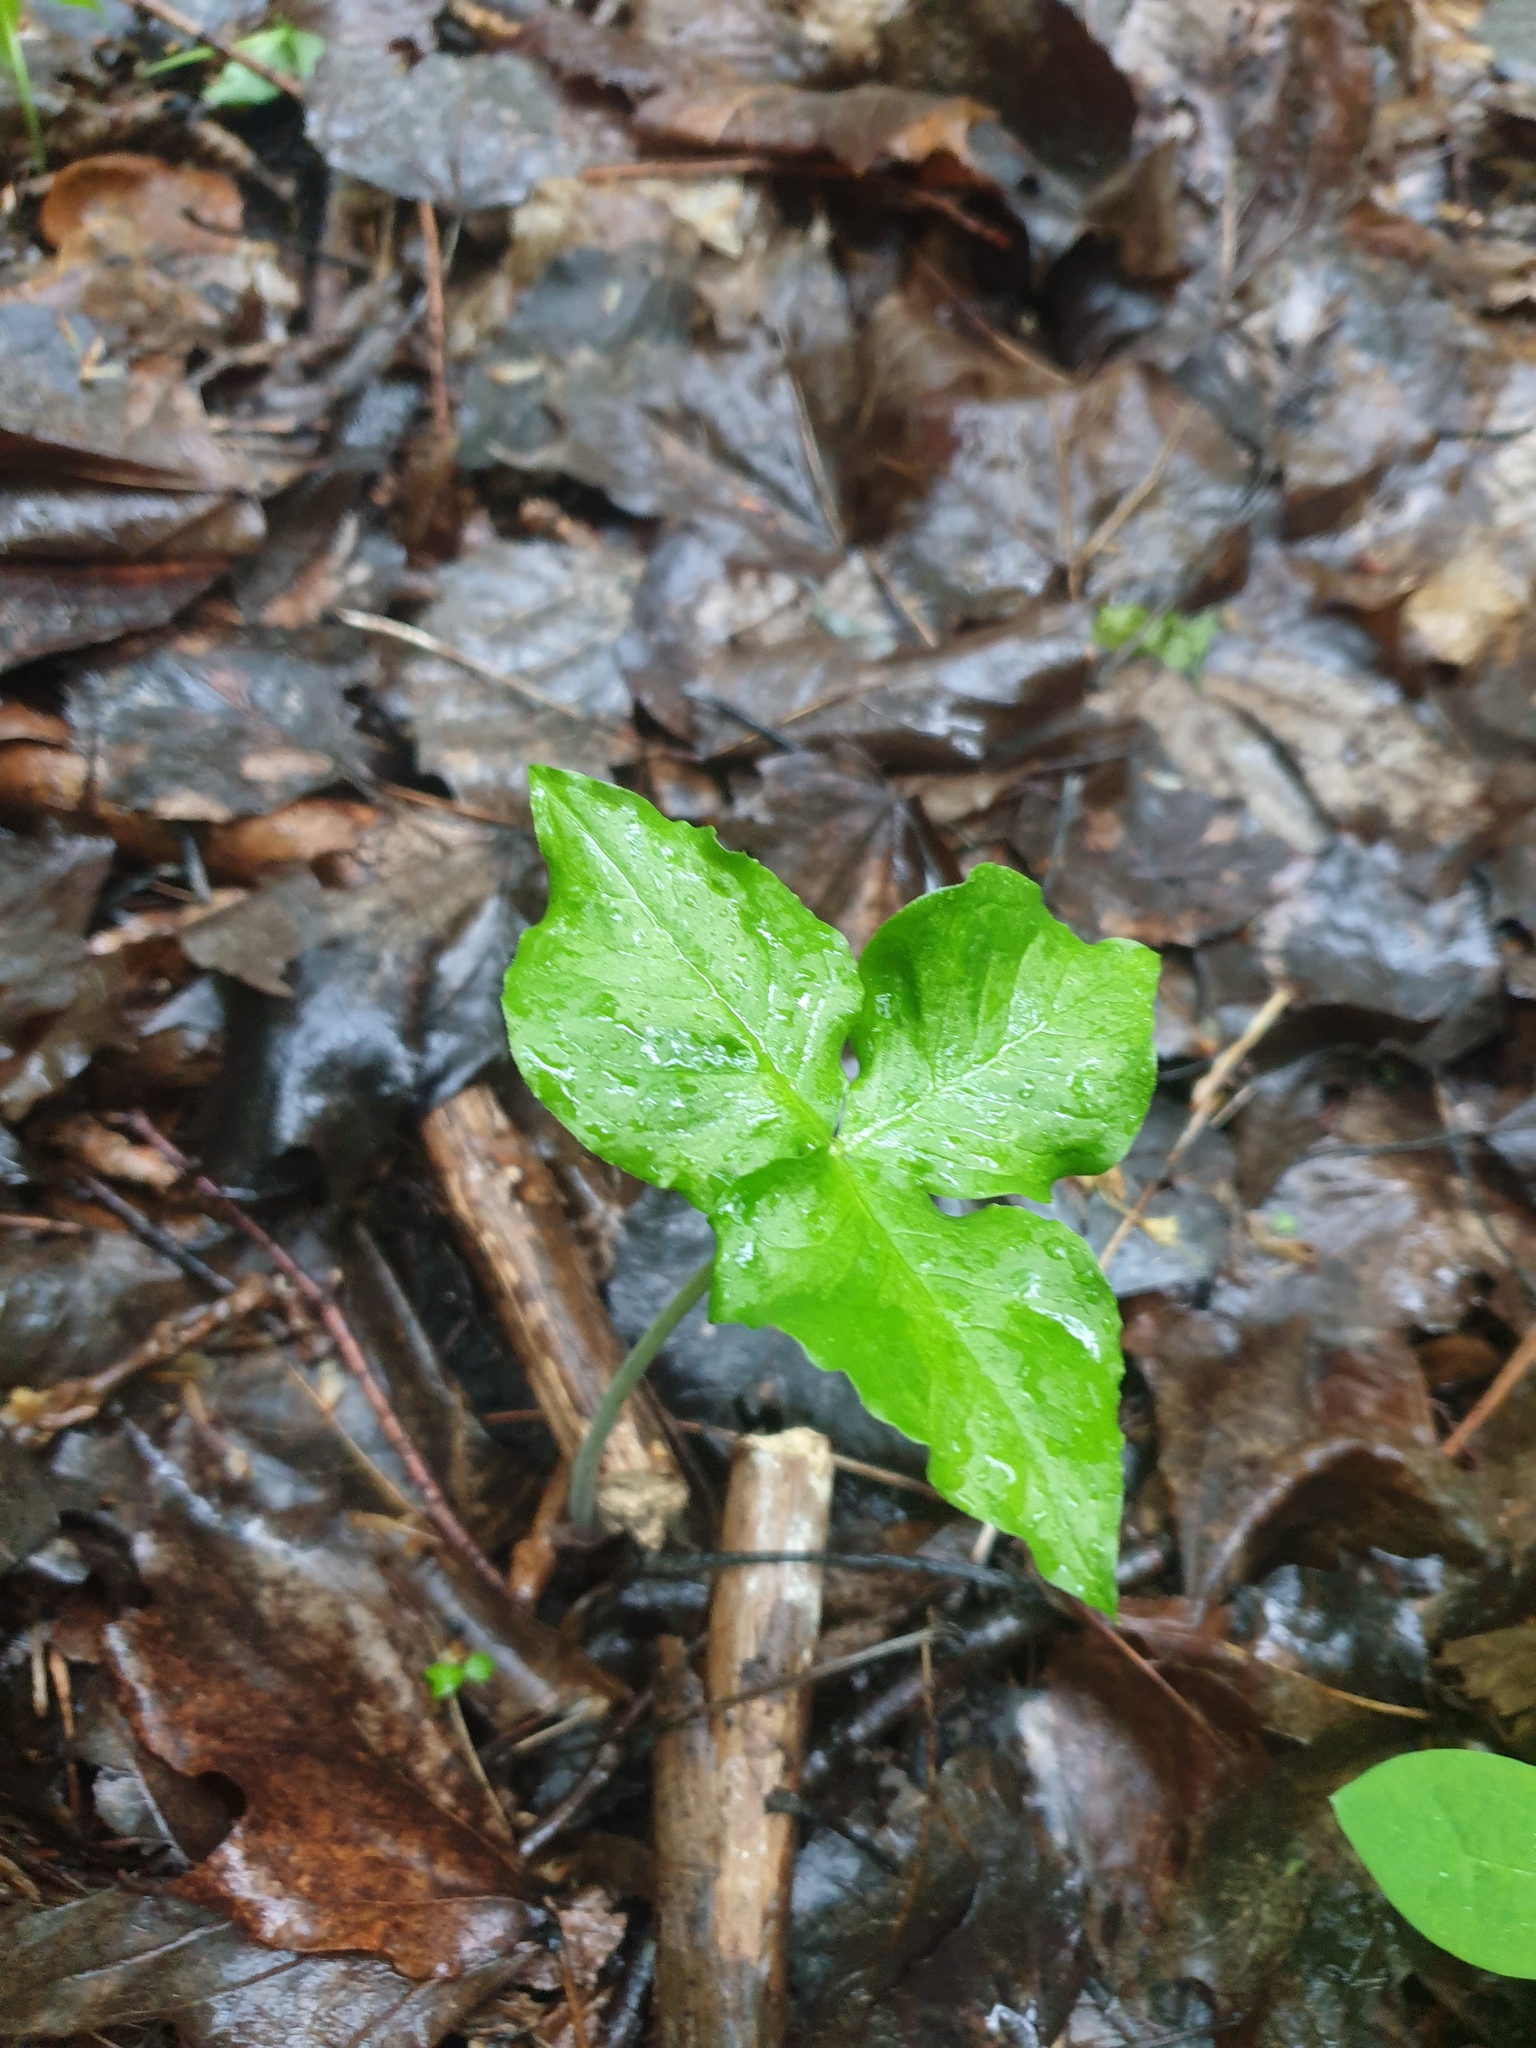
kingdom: Plantae
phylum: Tracheophyta
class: Liliopsida
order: Alismatales
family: Araceae
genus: Arisaema
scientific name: Arisaema triphyllum
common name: Jack-in-the-pulpit
